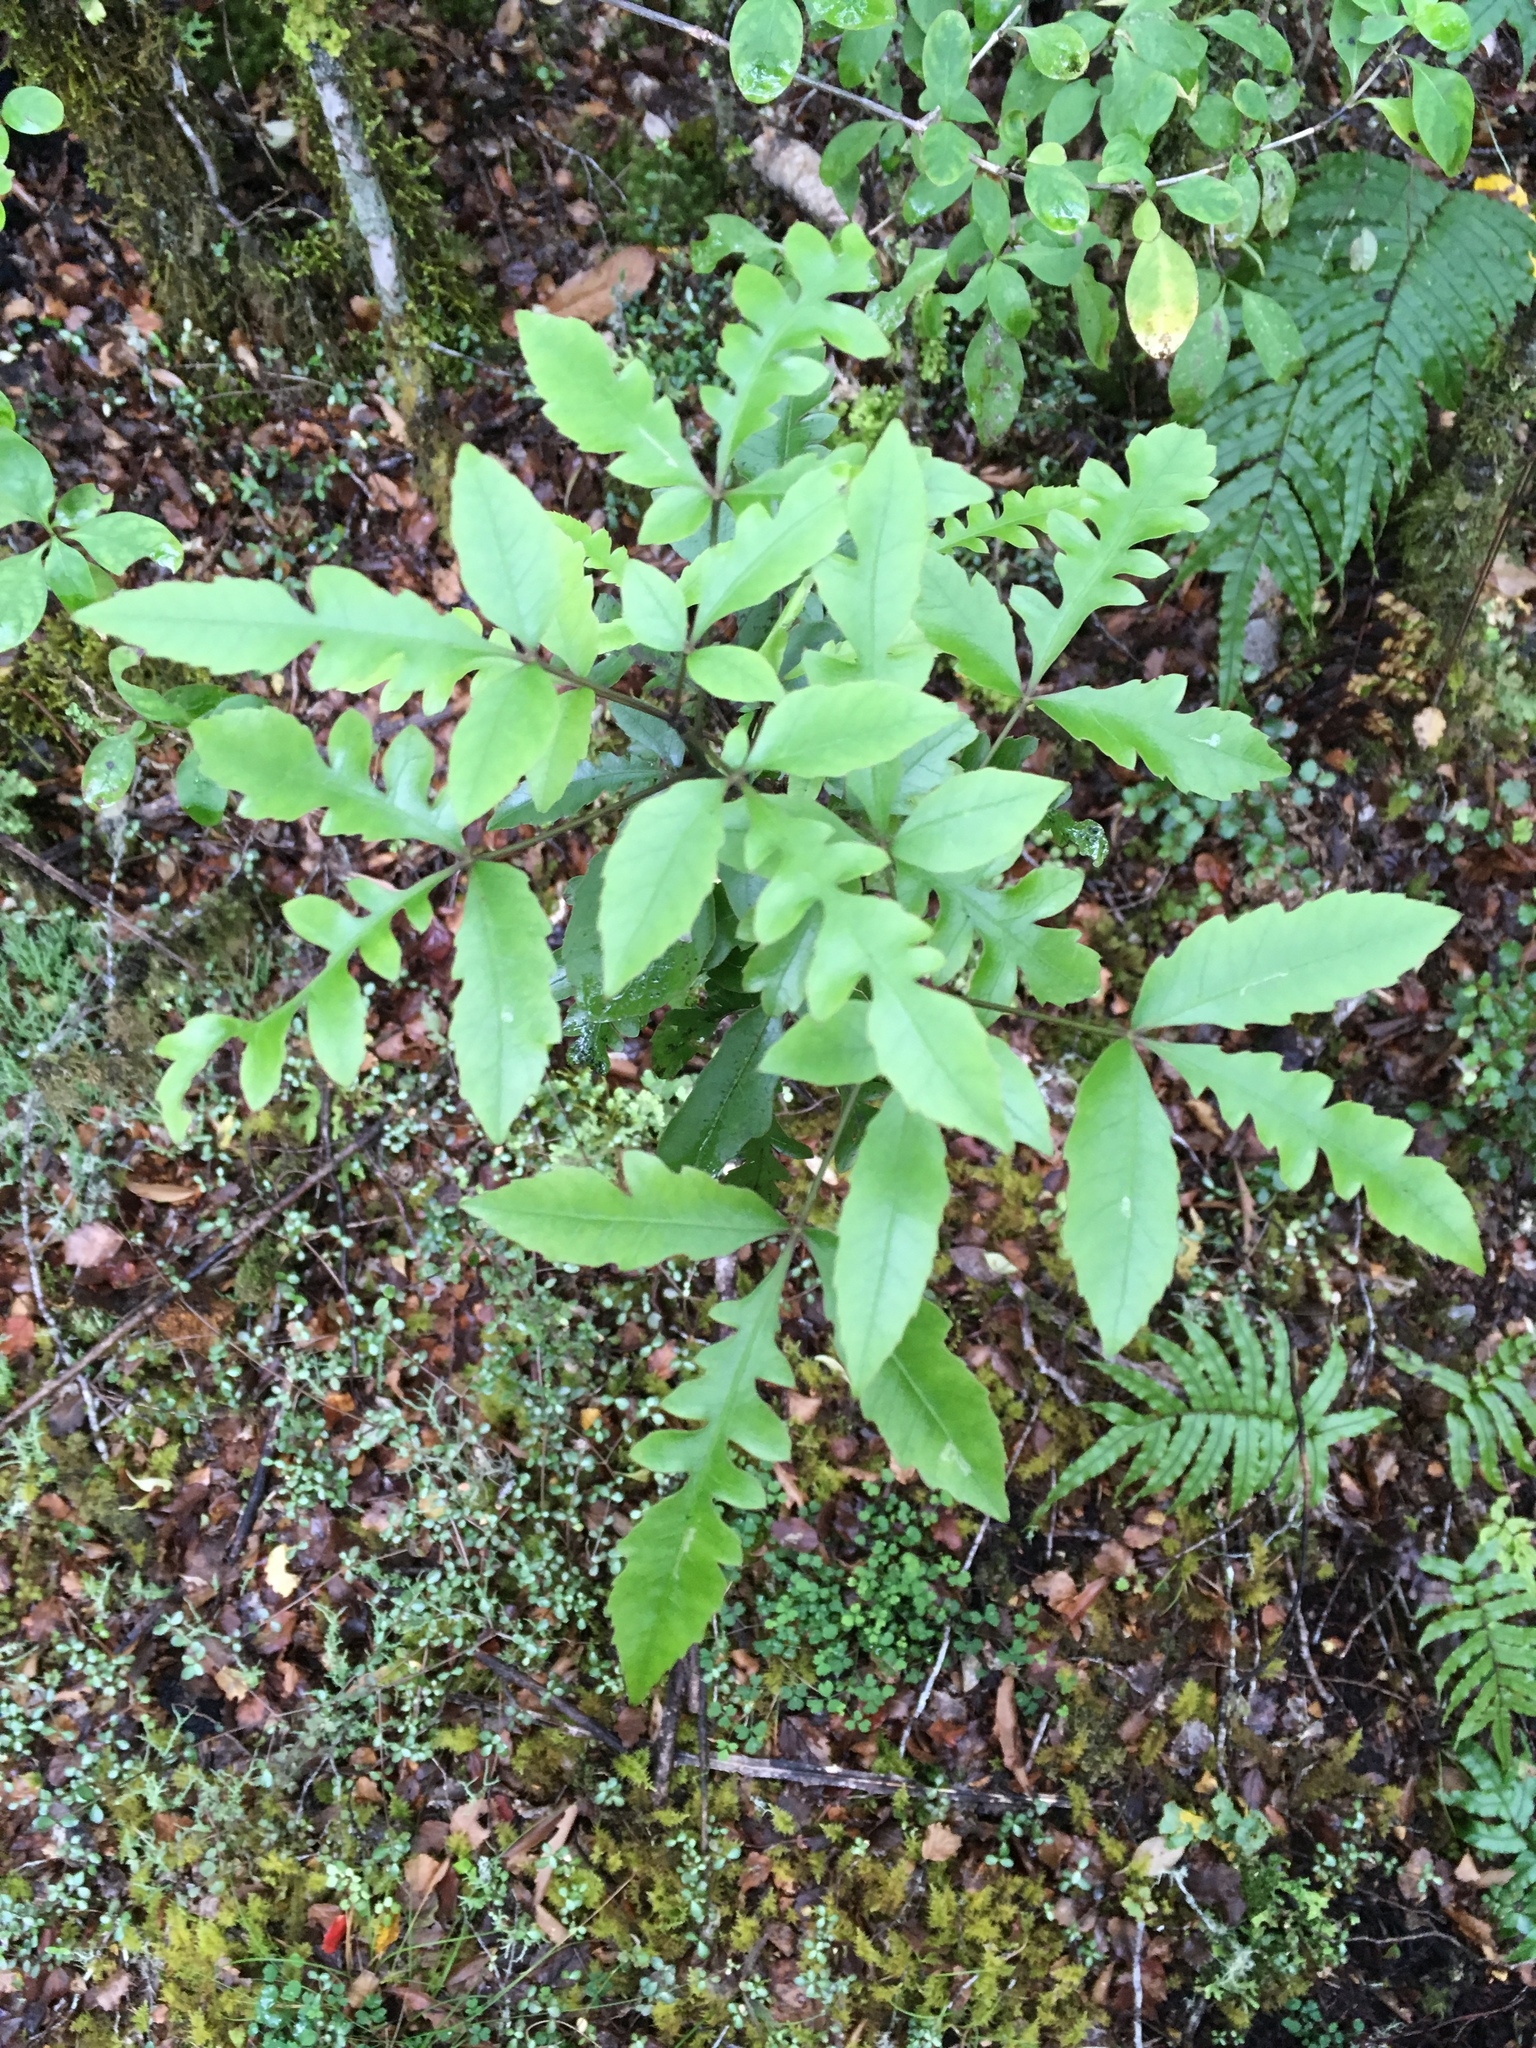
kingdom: Plantae
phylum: Tracheophyta
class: Magnoliopsida
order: Apiales
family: Araliaceae
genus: Raukaua
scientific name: Raukaua simplex
